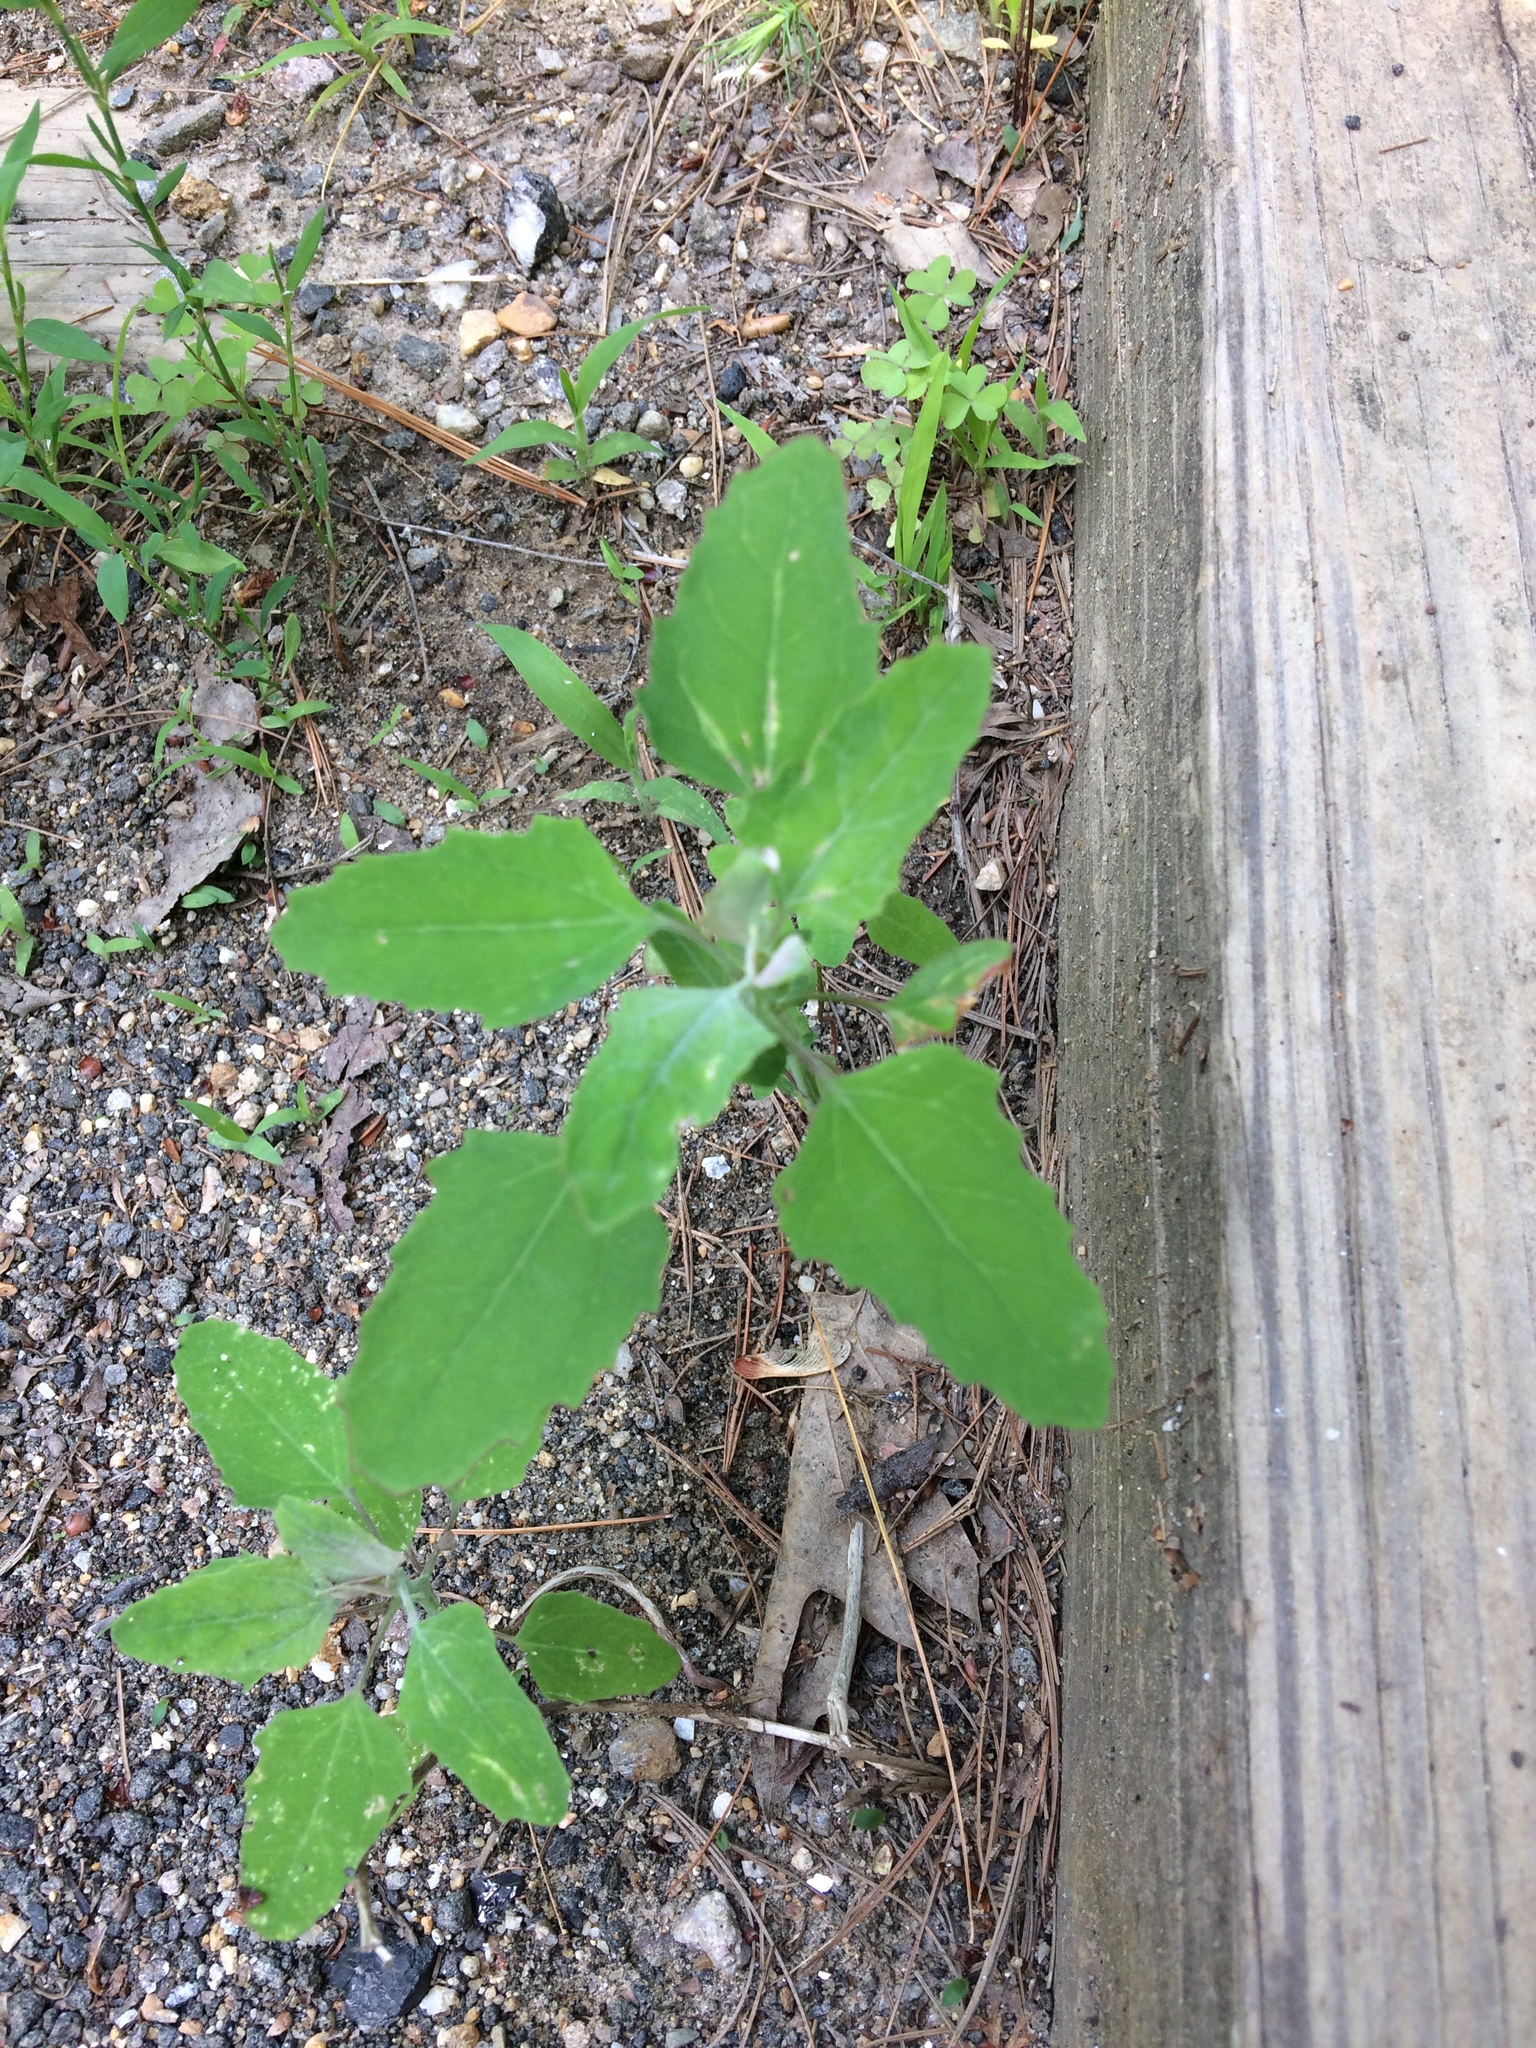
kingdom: Plantae
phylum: Tracheophyta
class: Magnoliopsida
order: Caryophyllales
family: Amaranthaceae
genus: Chenopodium
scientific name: Chenopodium album
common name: Fat-hen
